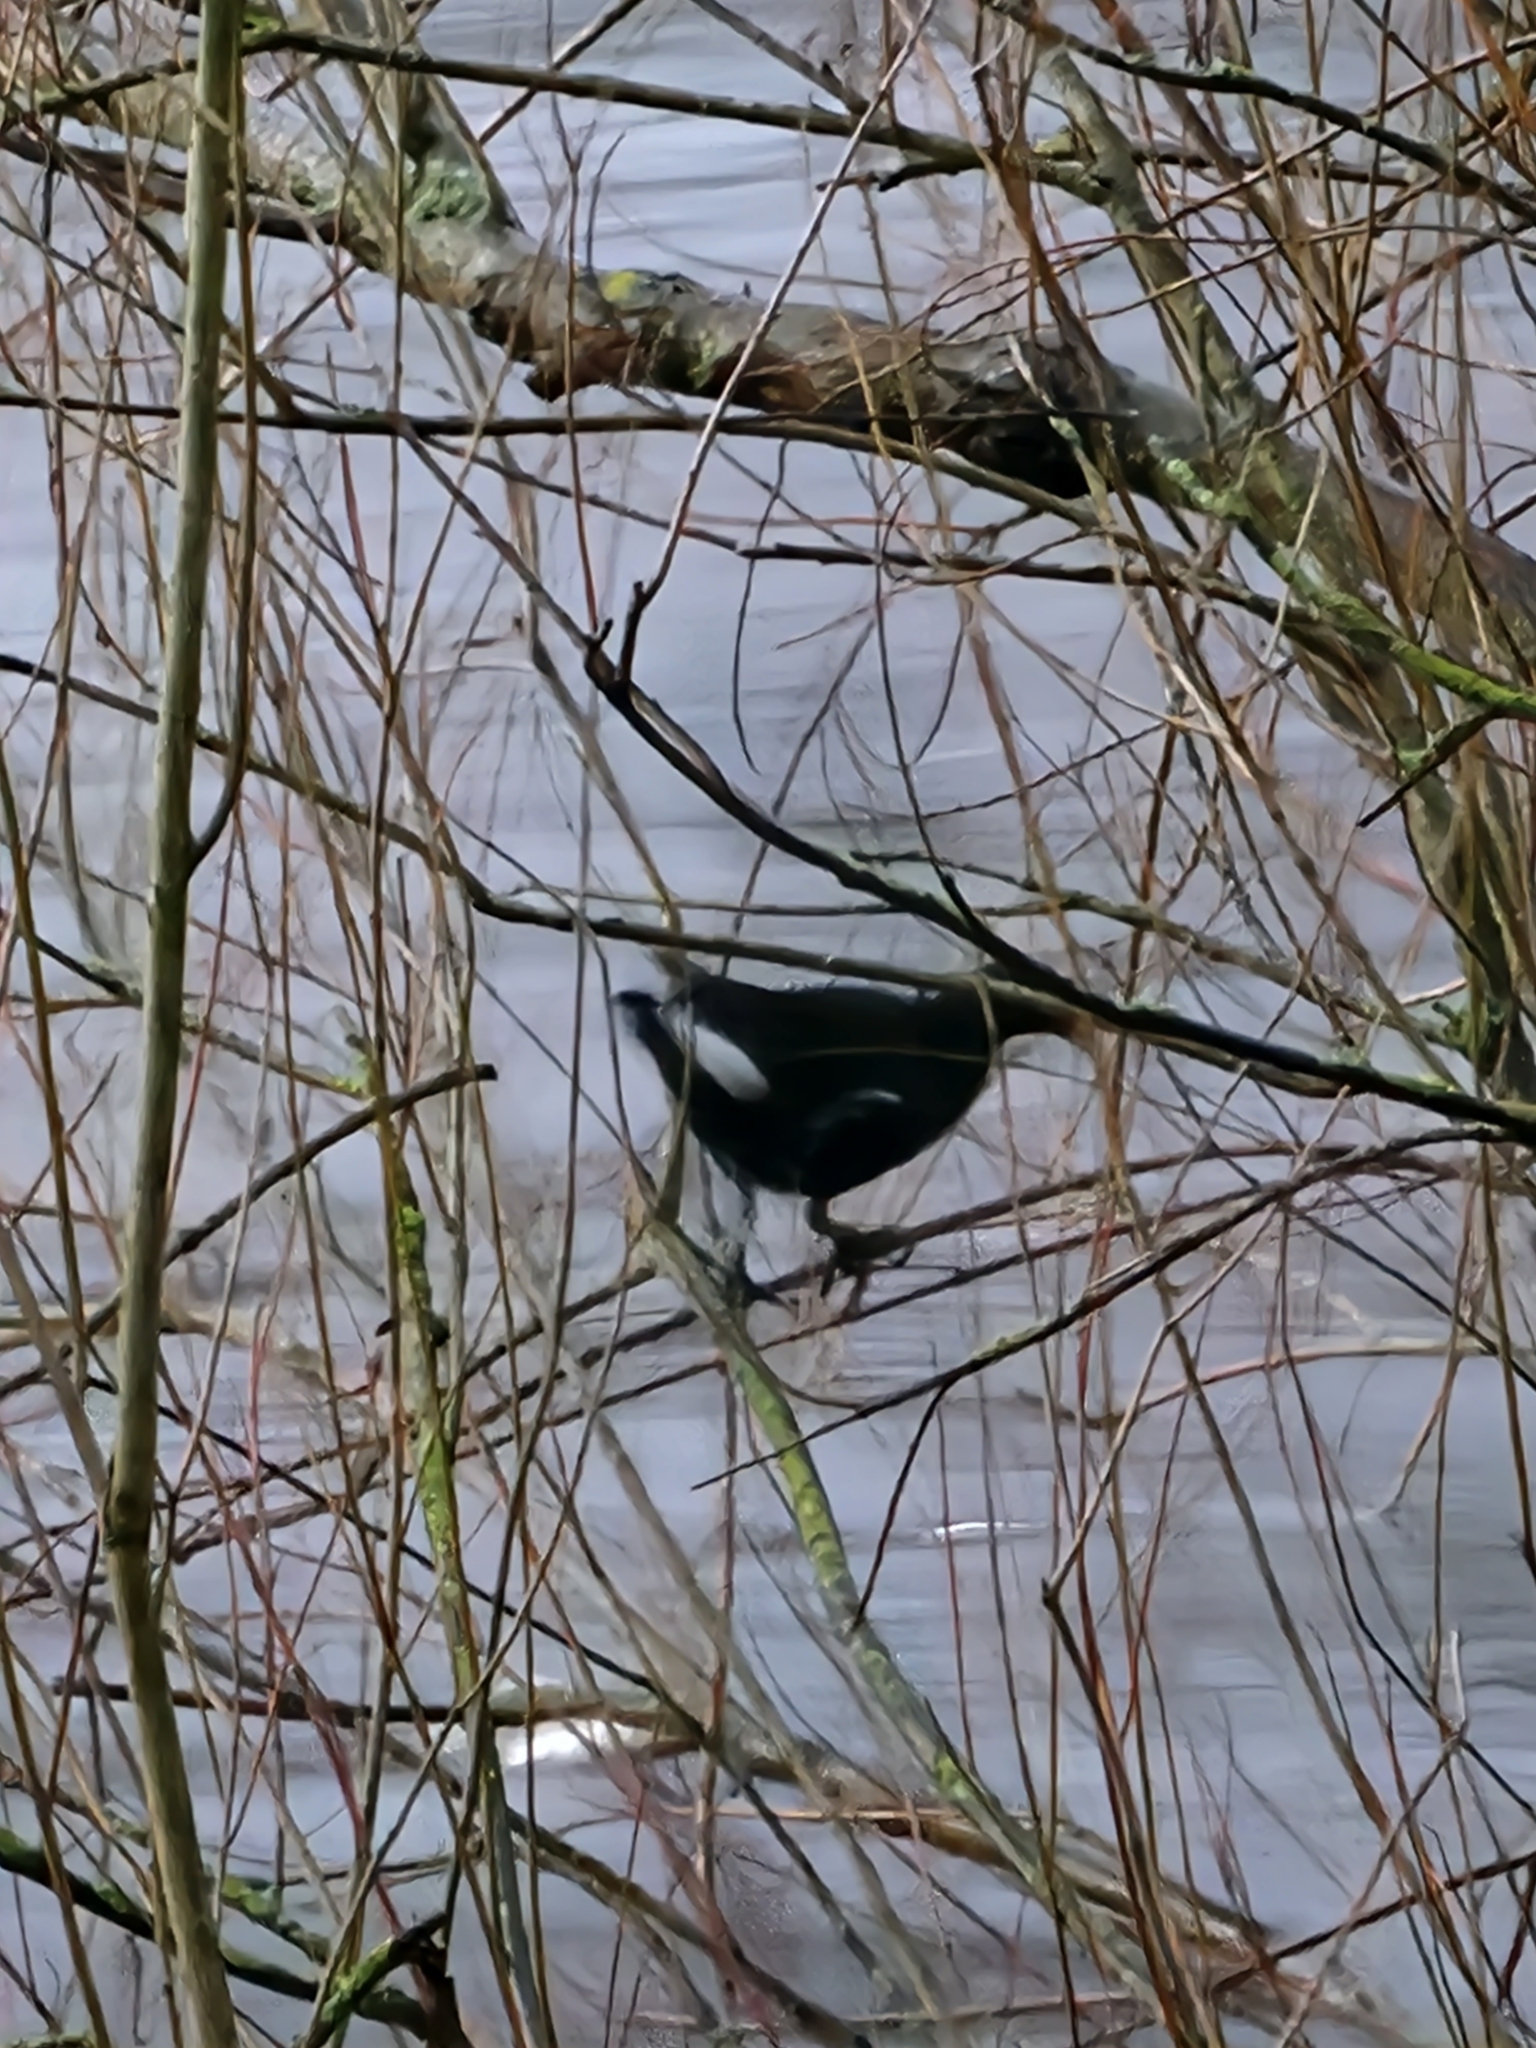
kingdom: Animalia
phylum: Chordata
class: Aves
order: Gruiformes
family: Rallidae
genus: Gallinula
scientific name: Gallinula chloropus
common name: Common moorhen
